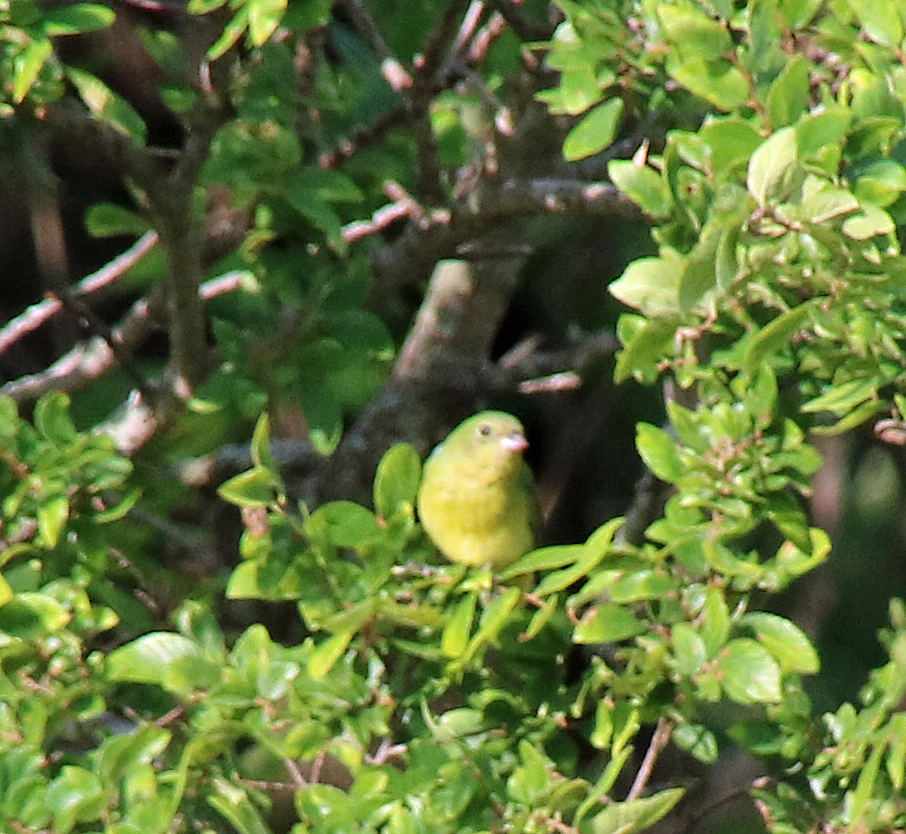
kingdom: Animalia
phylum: Chordata
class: Aves
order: Passeriformes
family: Cardinalidae
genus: Passerina
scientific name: Passerina ciris
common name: Painted bunting
